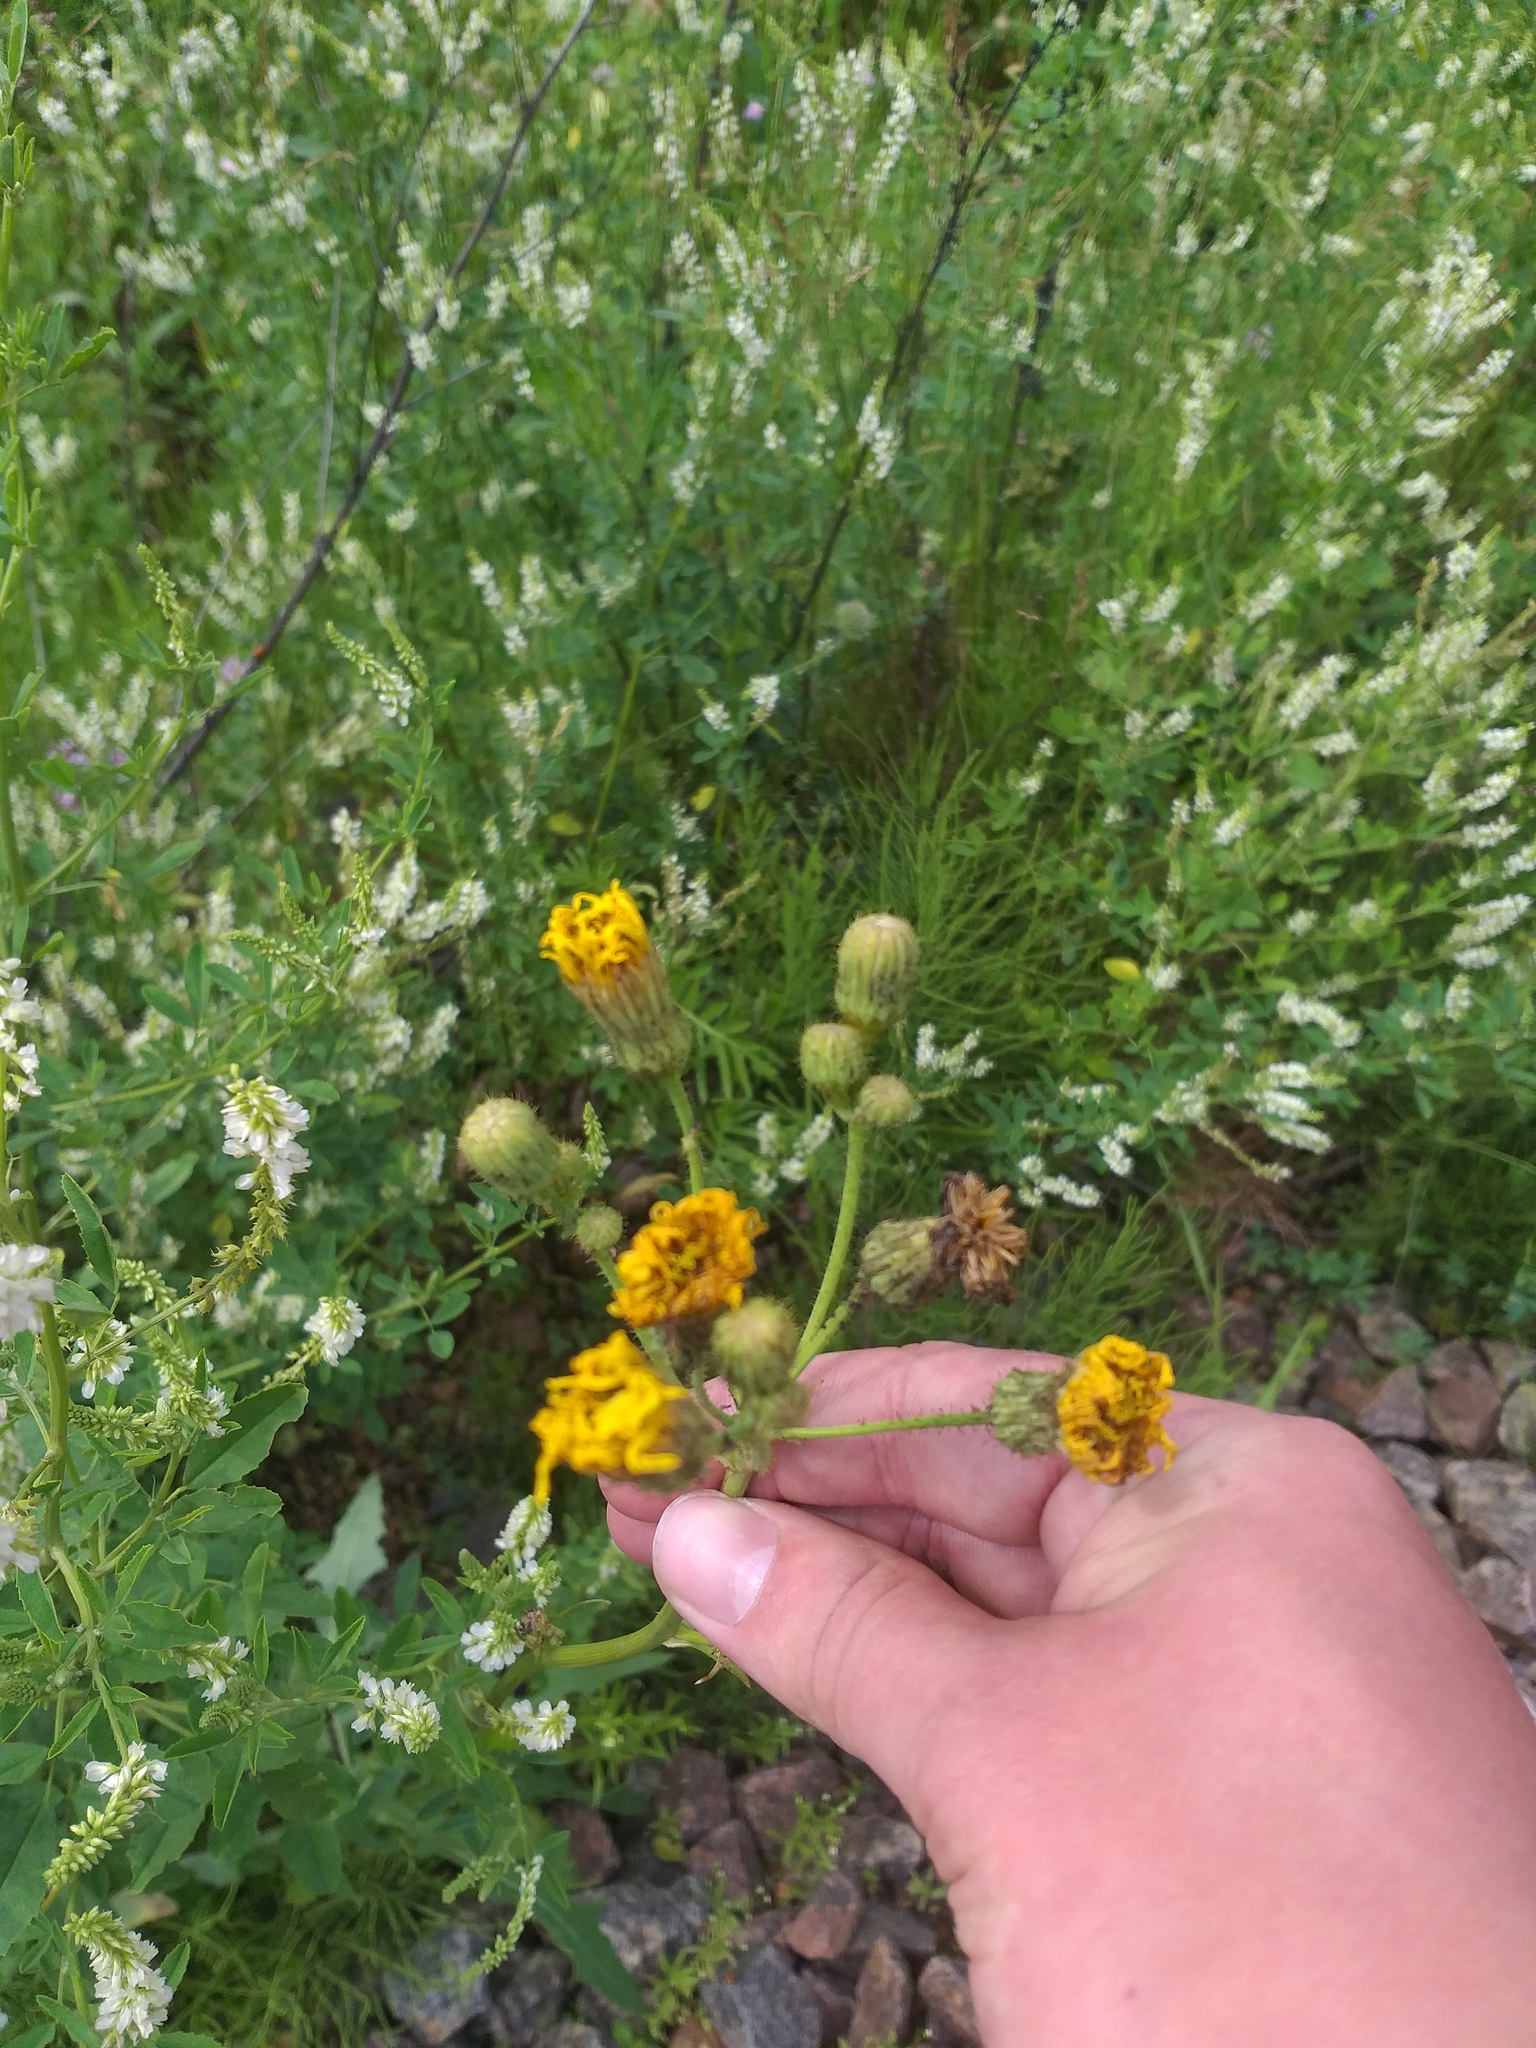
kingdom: Plantae
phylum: Tracheophyta
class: Magnoliopsida
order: Asterales
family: Asteraceae
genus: Sonchus
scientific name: Sonchus arvensis
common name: Perennial sow-thistle
